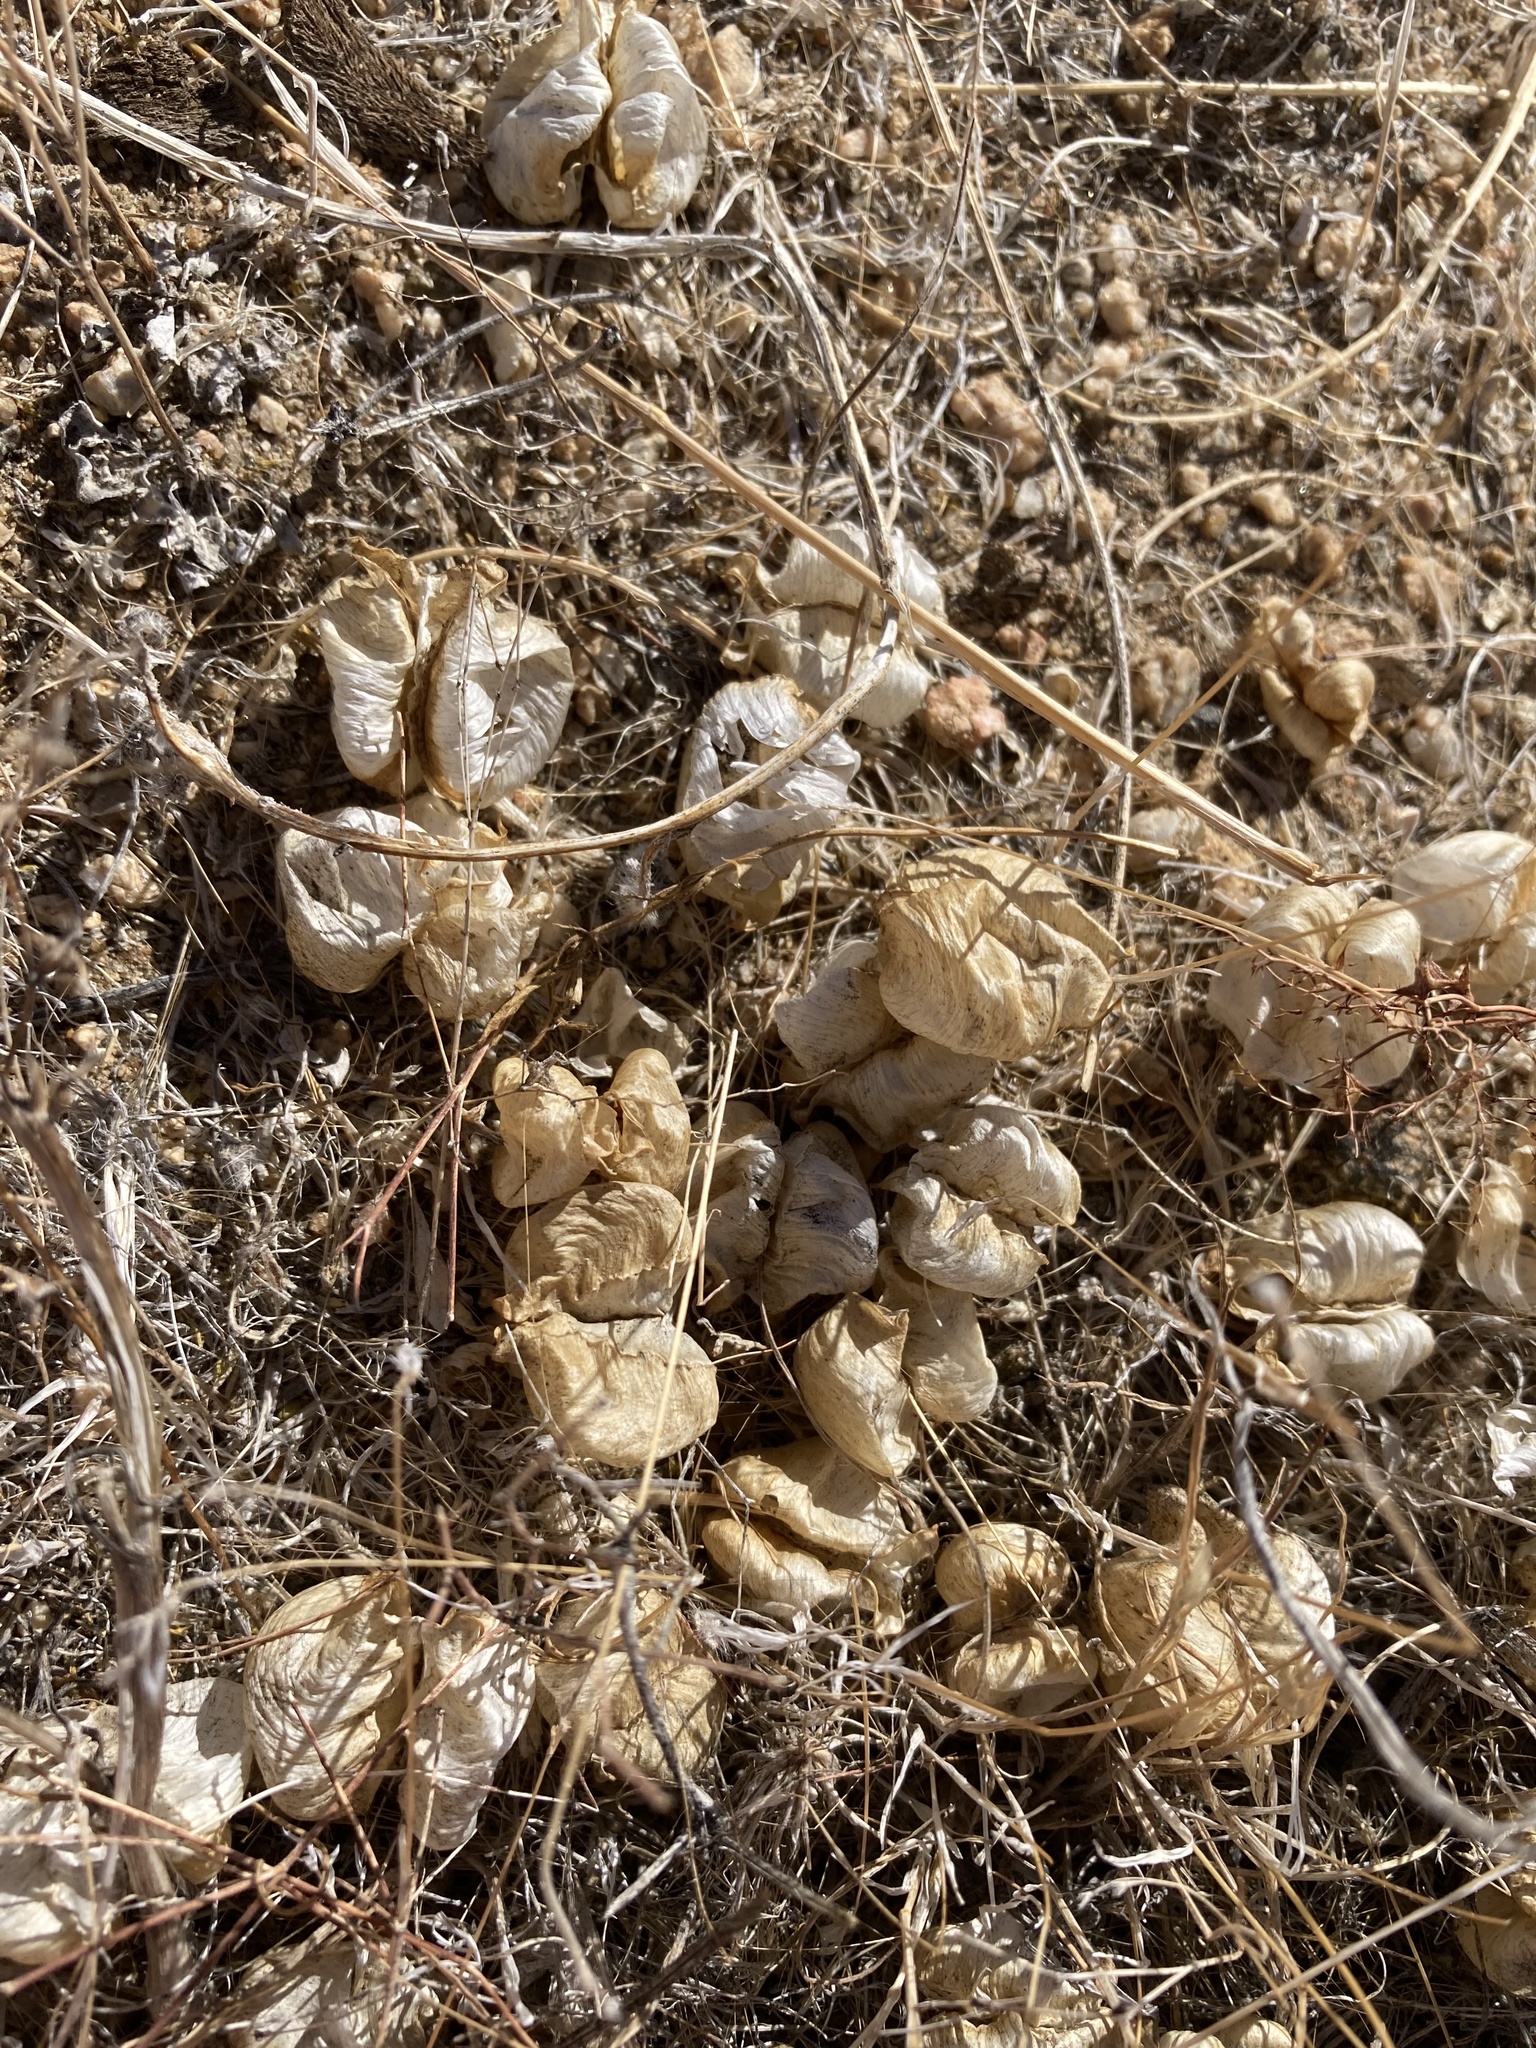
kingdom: Plantae
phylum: Tracheophyta
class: Magnoliopsida
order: Fabales
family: Fabaceae
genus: Astragalus
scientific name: Astragalus lentiginosus
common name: Freckled milkvetch
